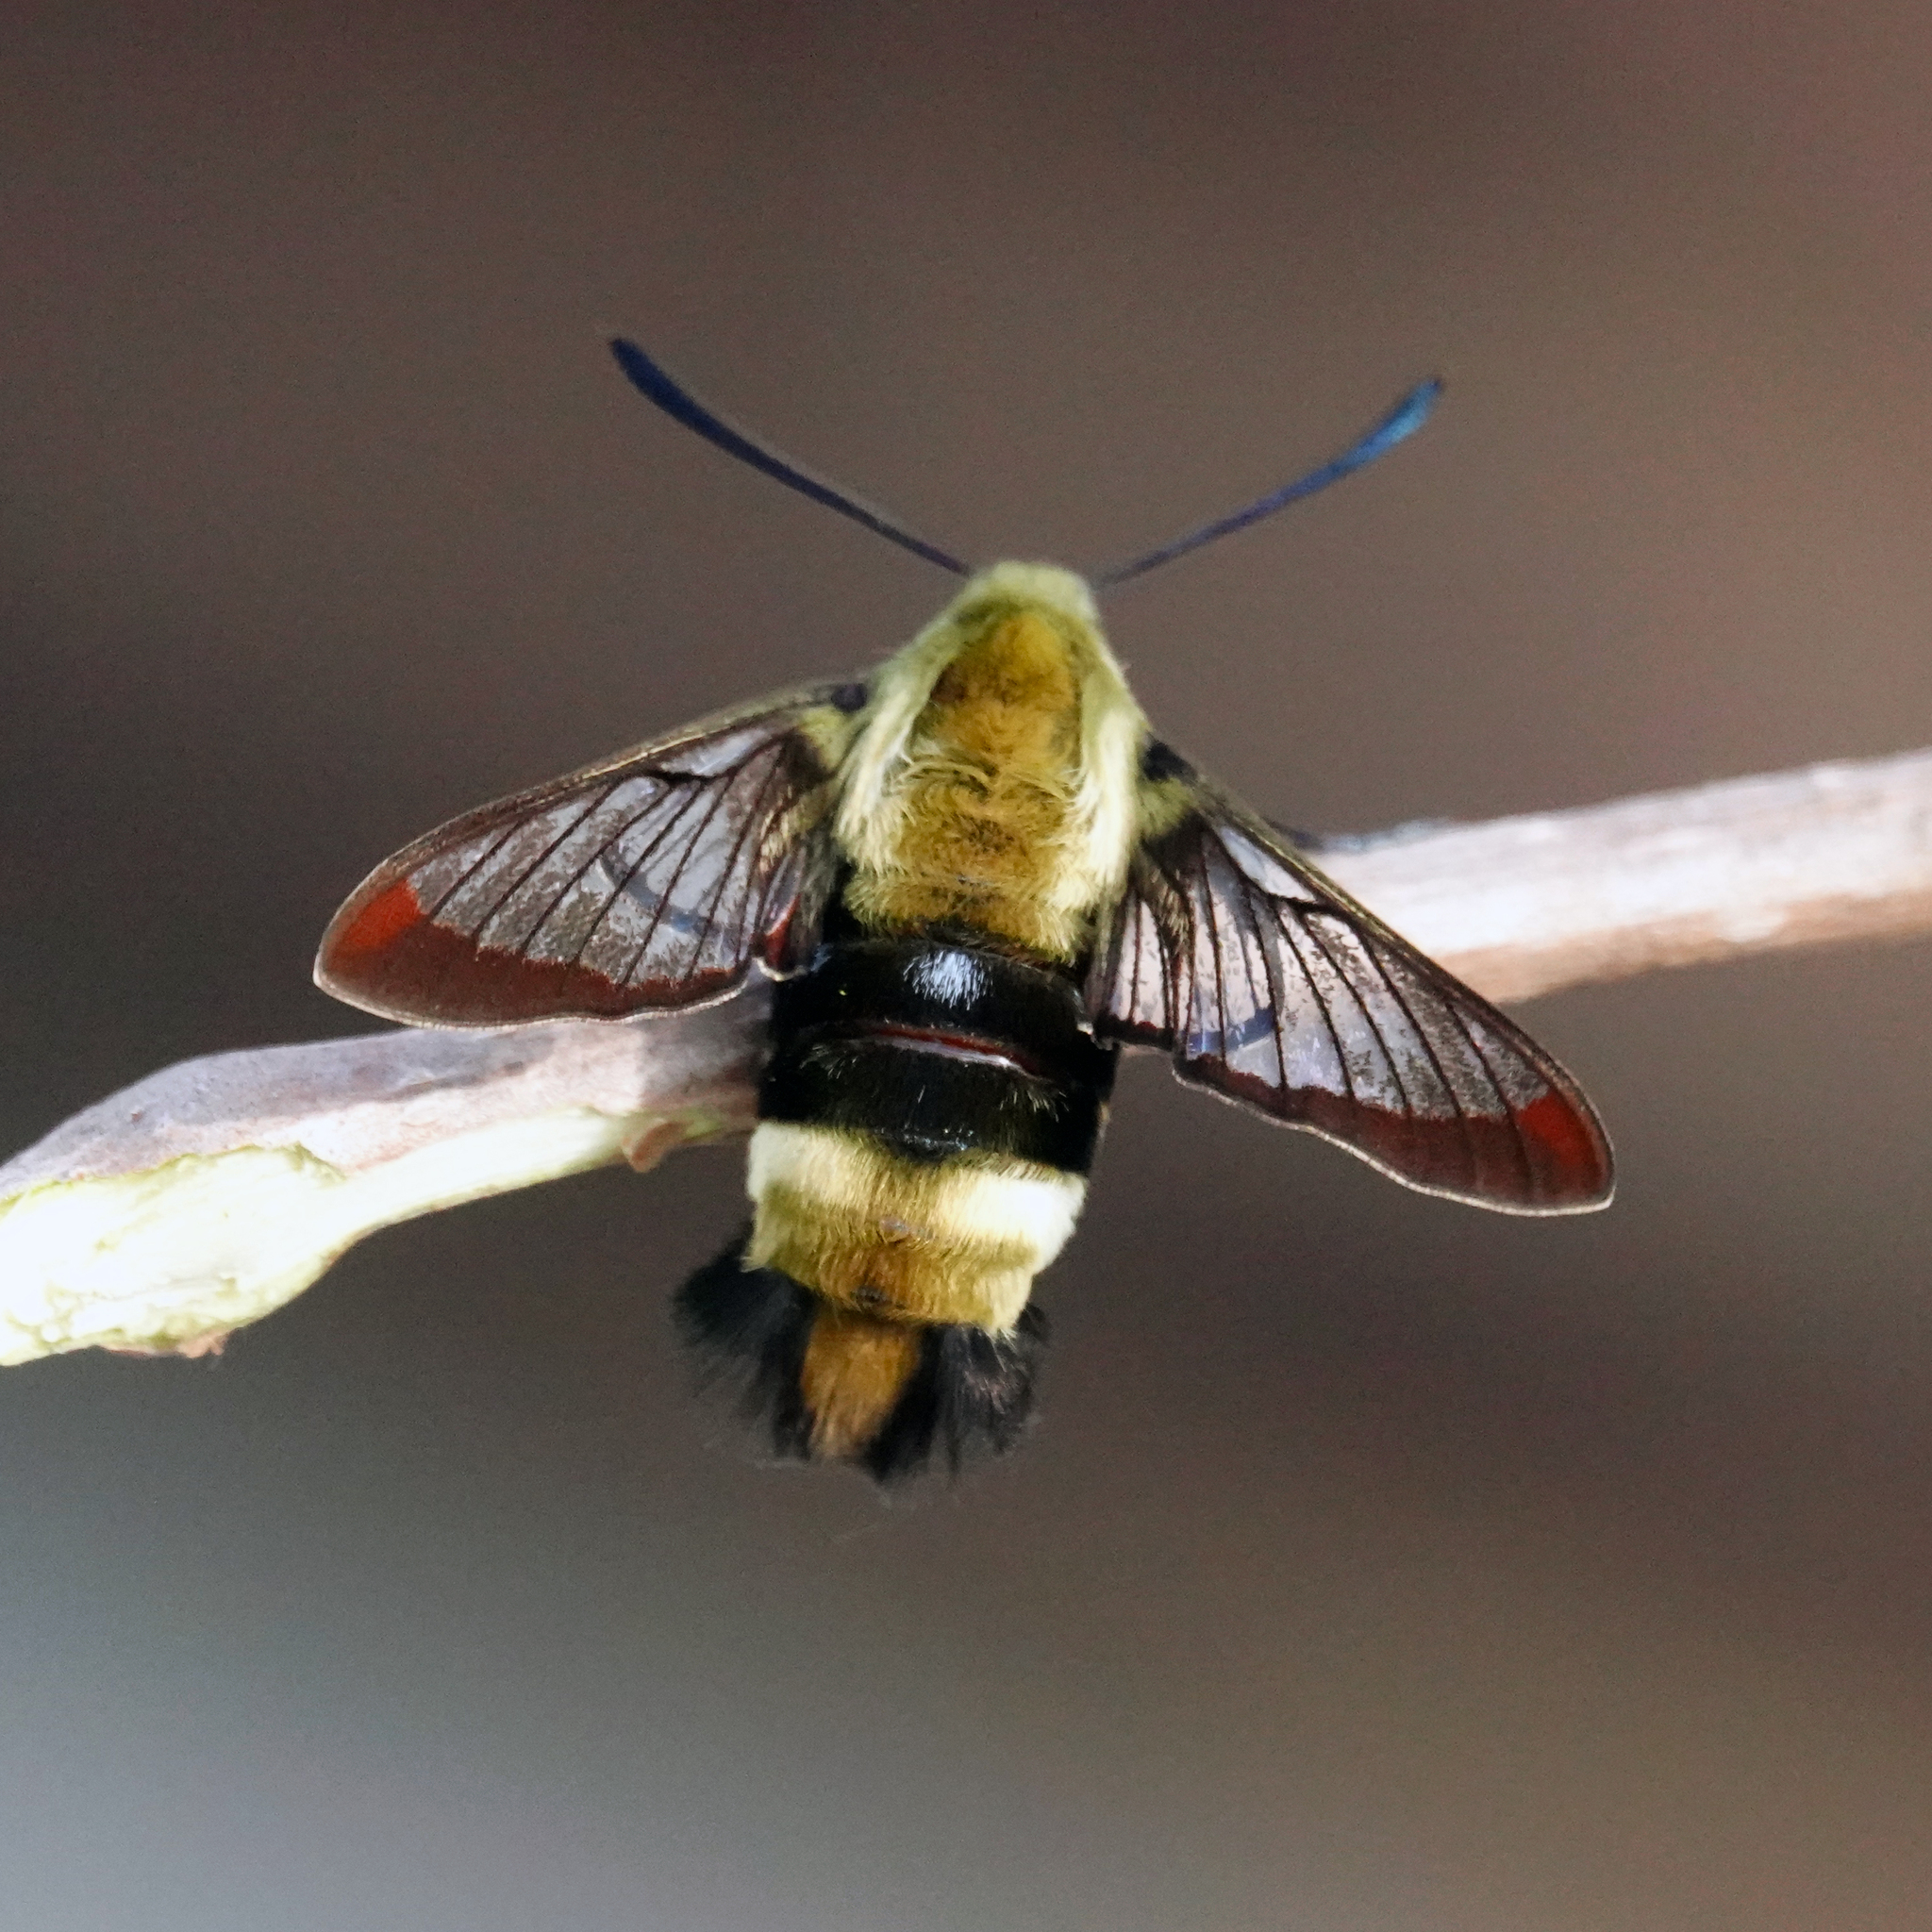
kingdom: Animalia
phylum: Arthropoda
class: Insecta
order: Lepidoptera
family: Sphingidae
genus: Hemaris
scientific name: Hemaris diffinis
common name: Bumblebee moth
